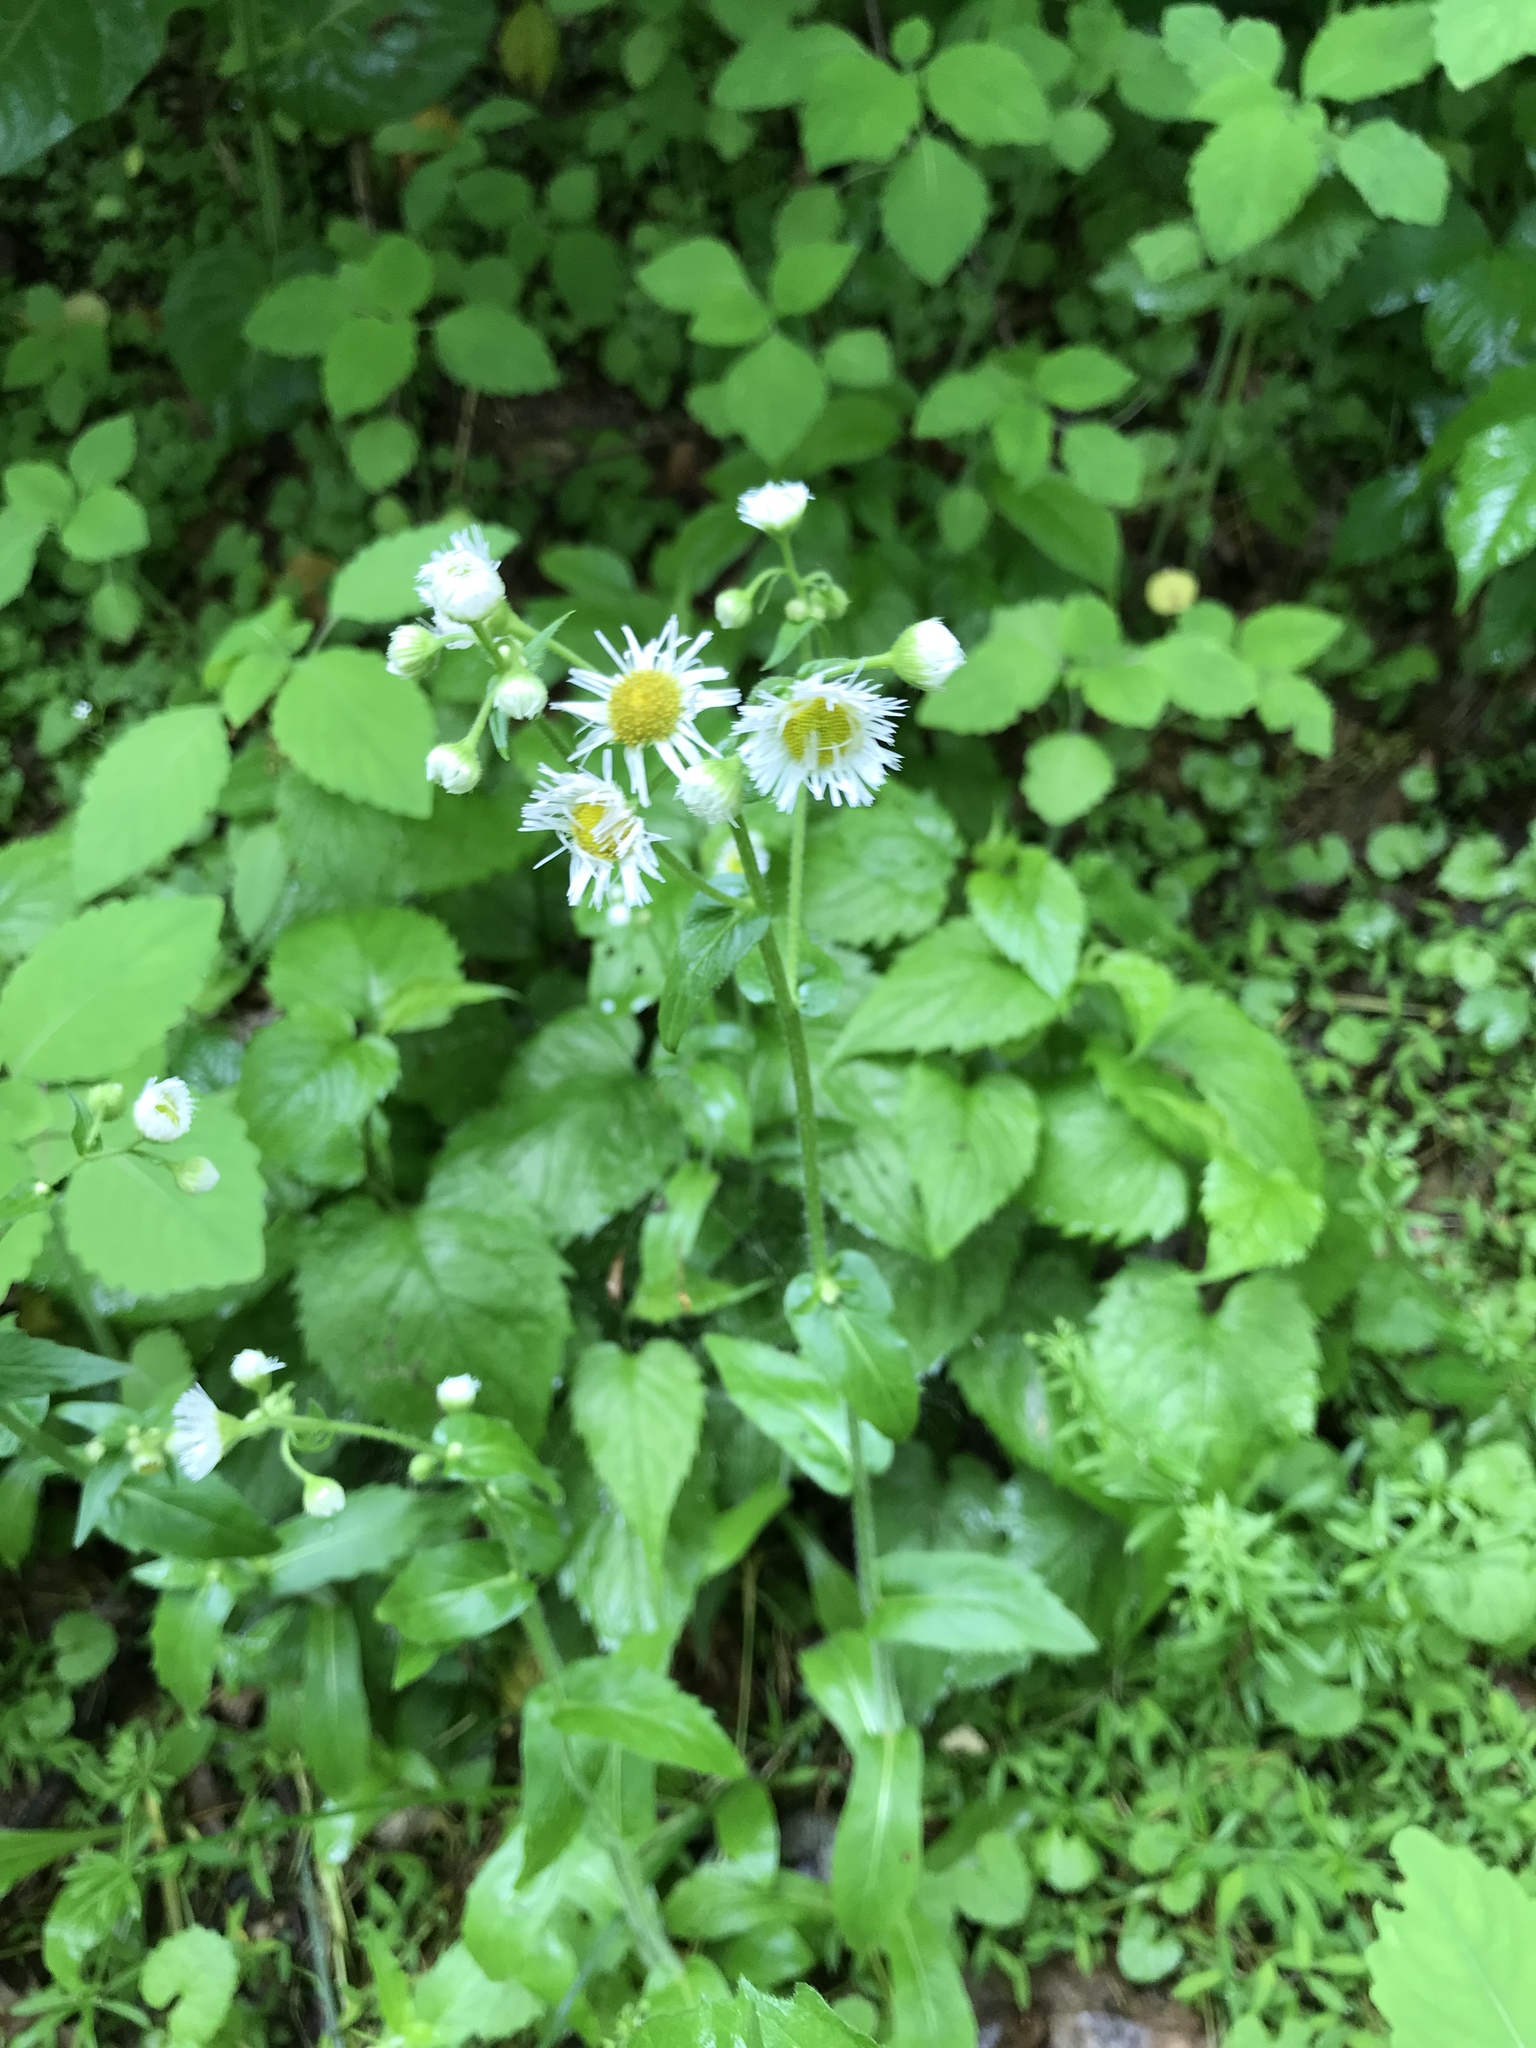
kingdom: Plantae
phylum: Tracheophyta
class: Magnoliopsida
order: Asterales
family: Asteraceae
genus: Erigeron
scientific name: Erigeron philadelphicus
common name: Robin's-plantain
